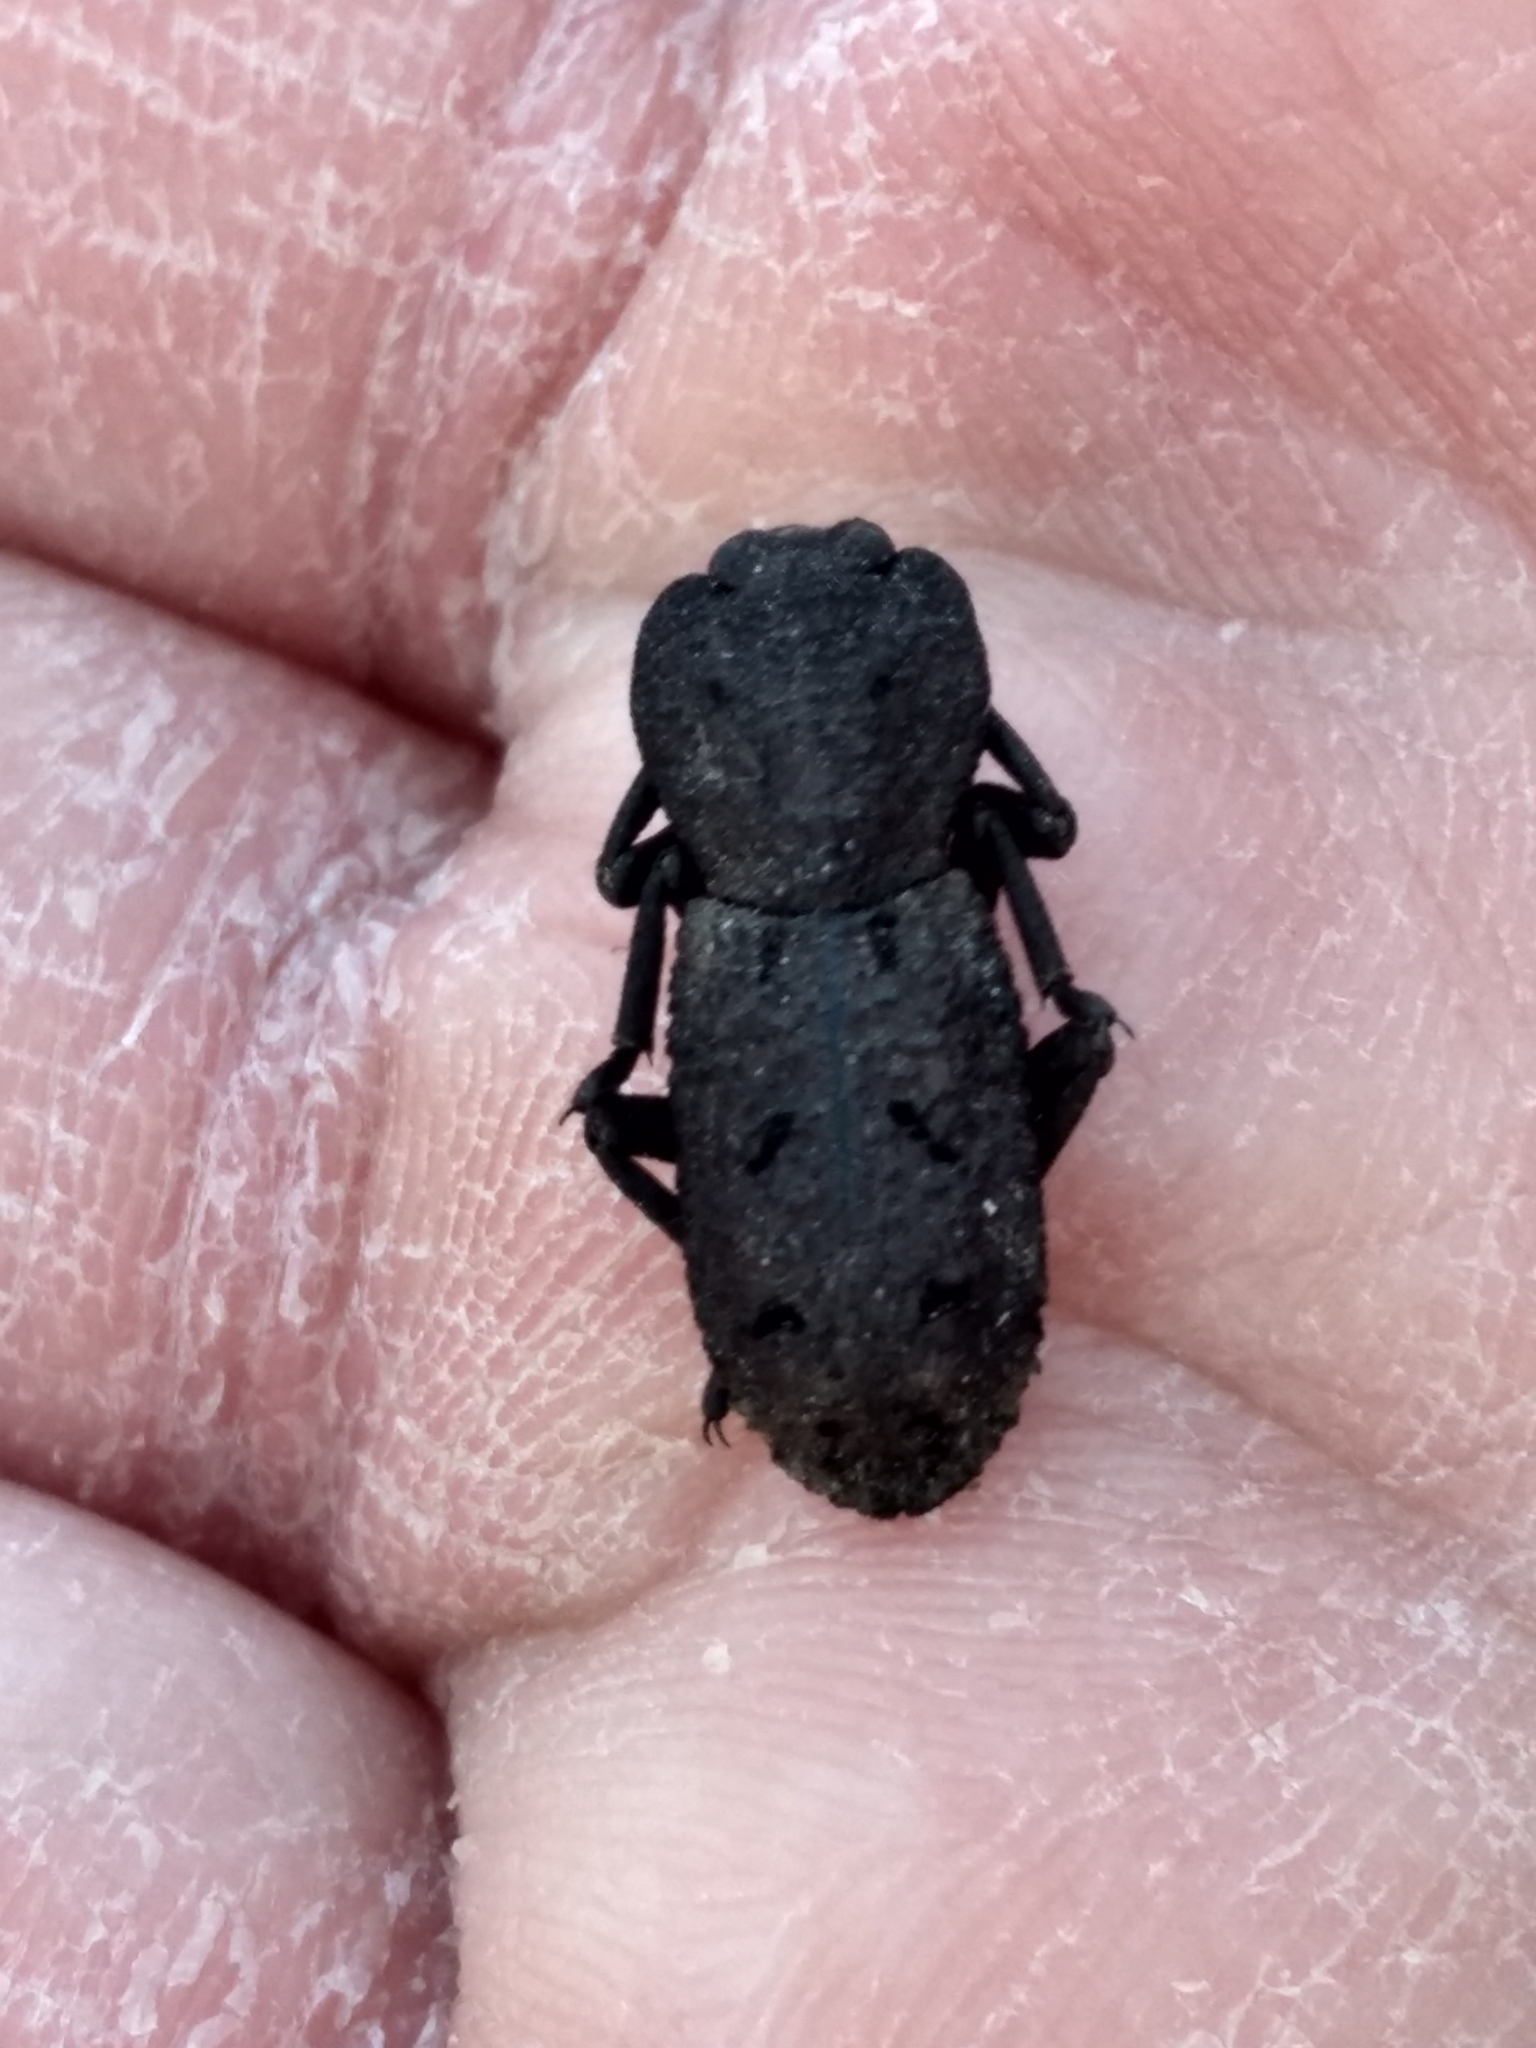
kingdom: Animalia
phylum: Arthropoda
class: Insecta
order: Coleoptera
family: Zopheridae
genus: Phloeodes
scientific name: Phloeodes diabolicus
